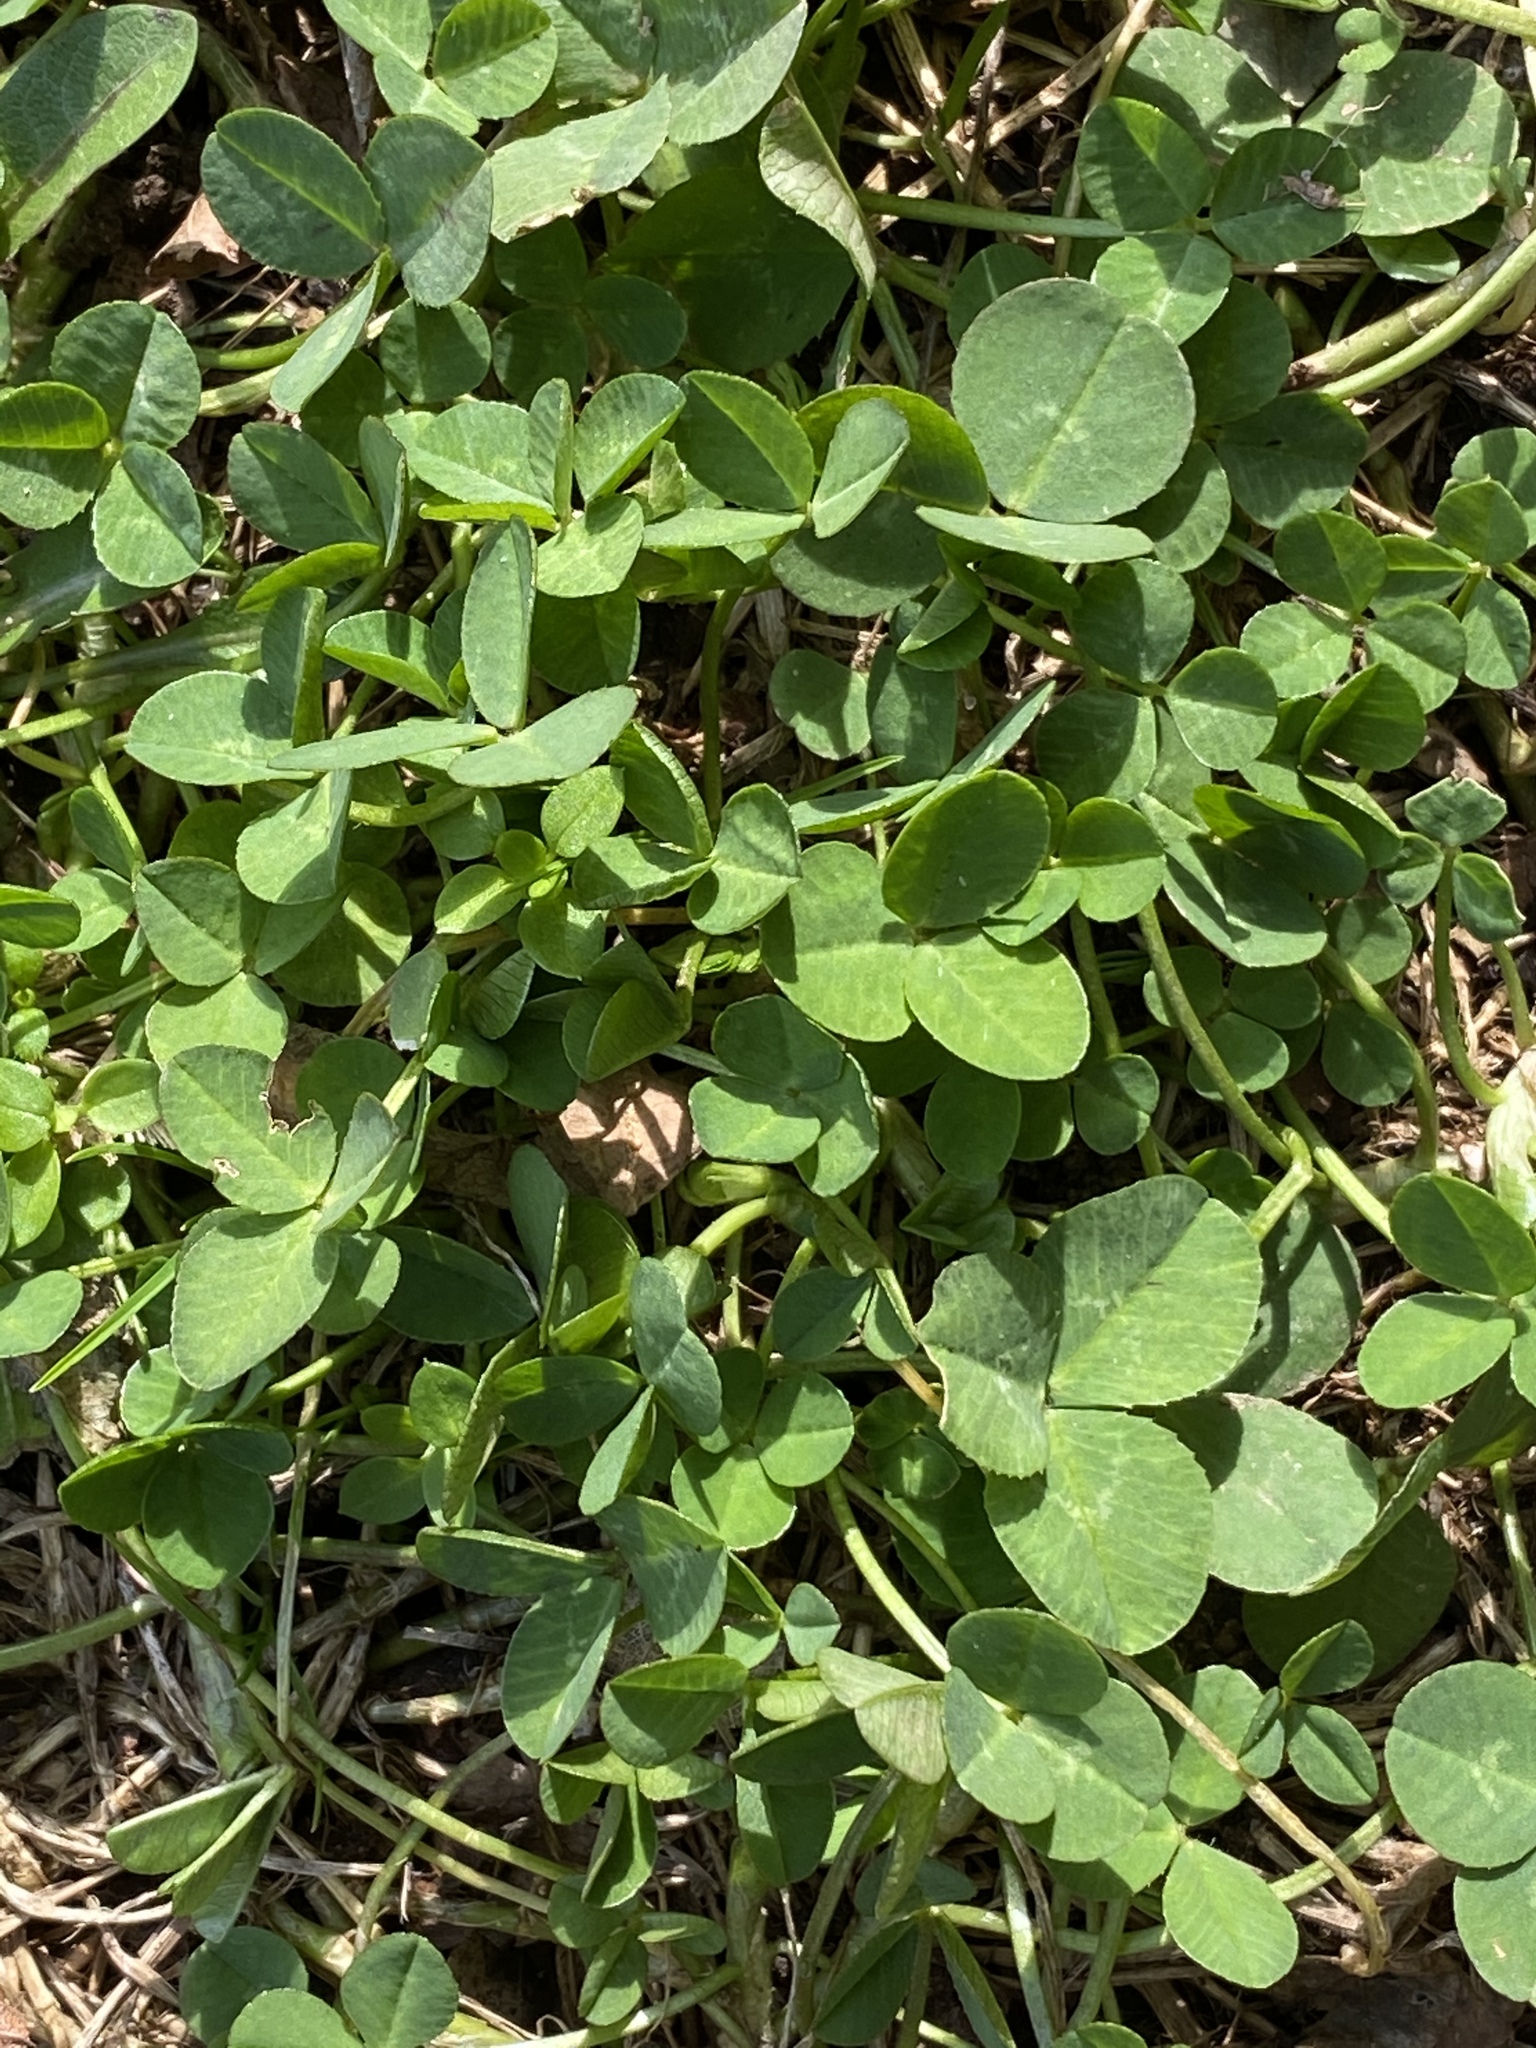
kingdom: Plantae
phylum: Tracheophyta
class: Magnoliopsida
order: Fabales
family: Fabaceae
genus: Trifolium
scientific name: Trifolium repens
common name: White clover
